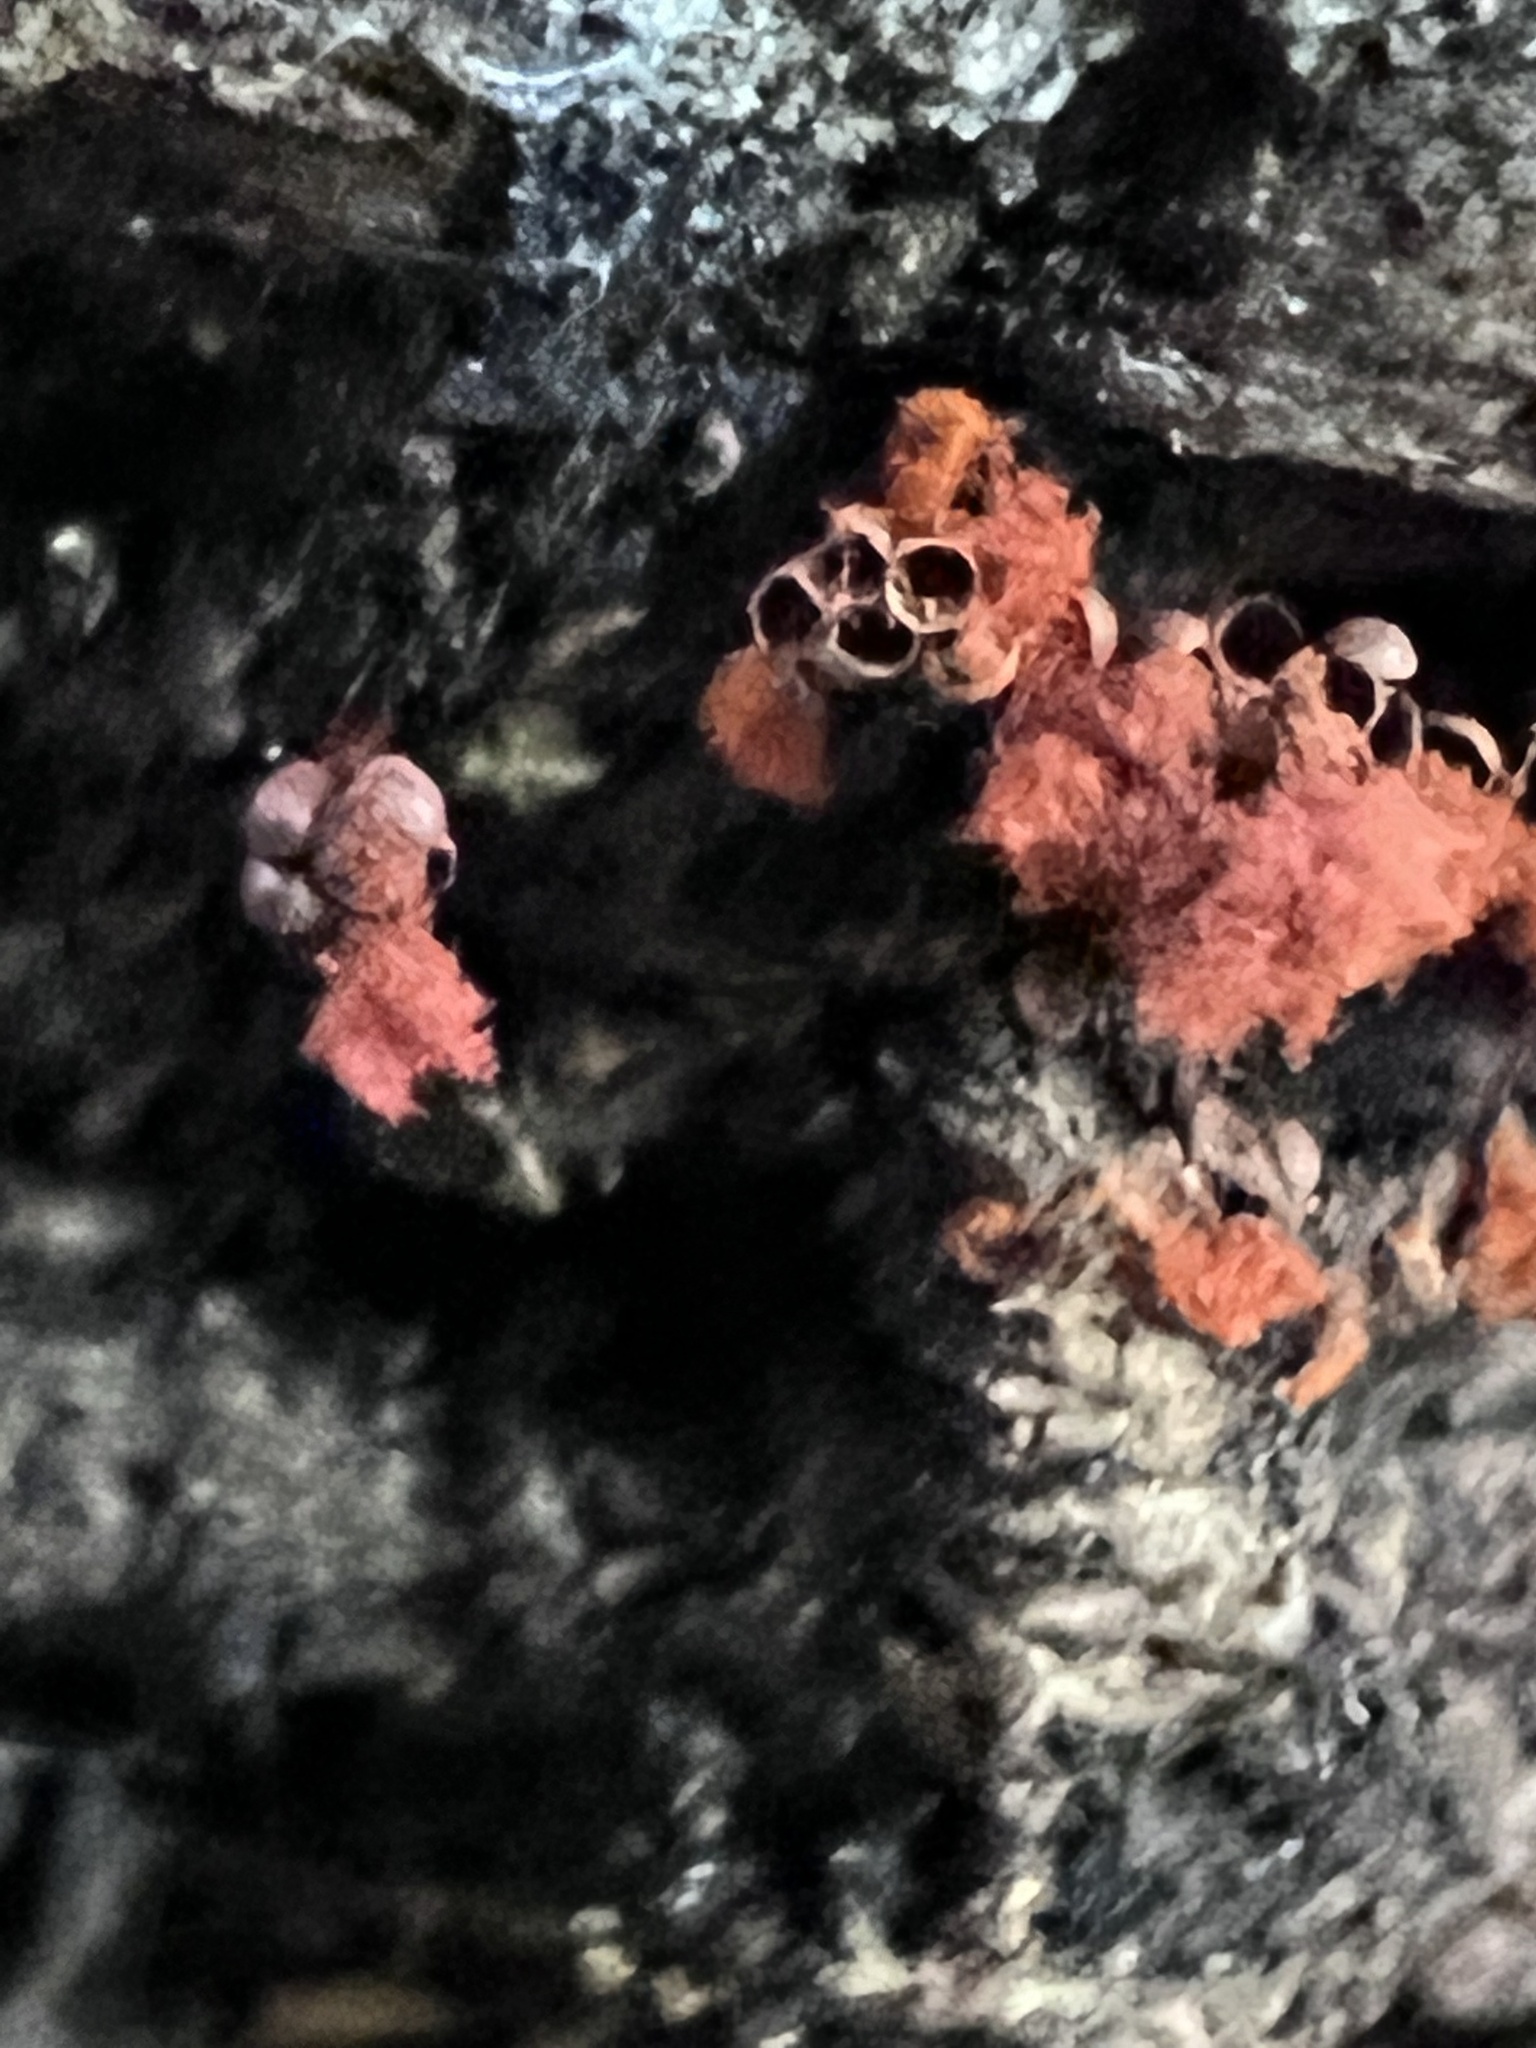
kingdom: Protozoa
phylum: Mycetozoa
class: Myxomycetes
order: Trichiales
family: Trichiaceae
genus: Metatrichia
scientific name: Metatrichia vesparia
